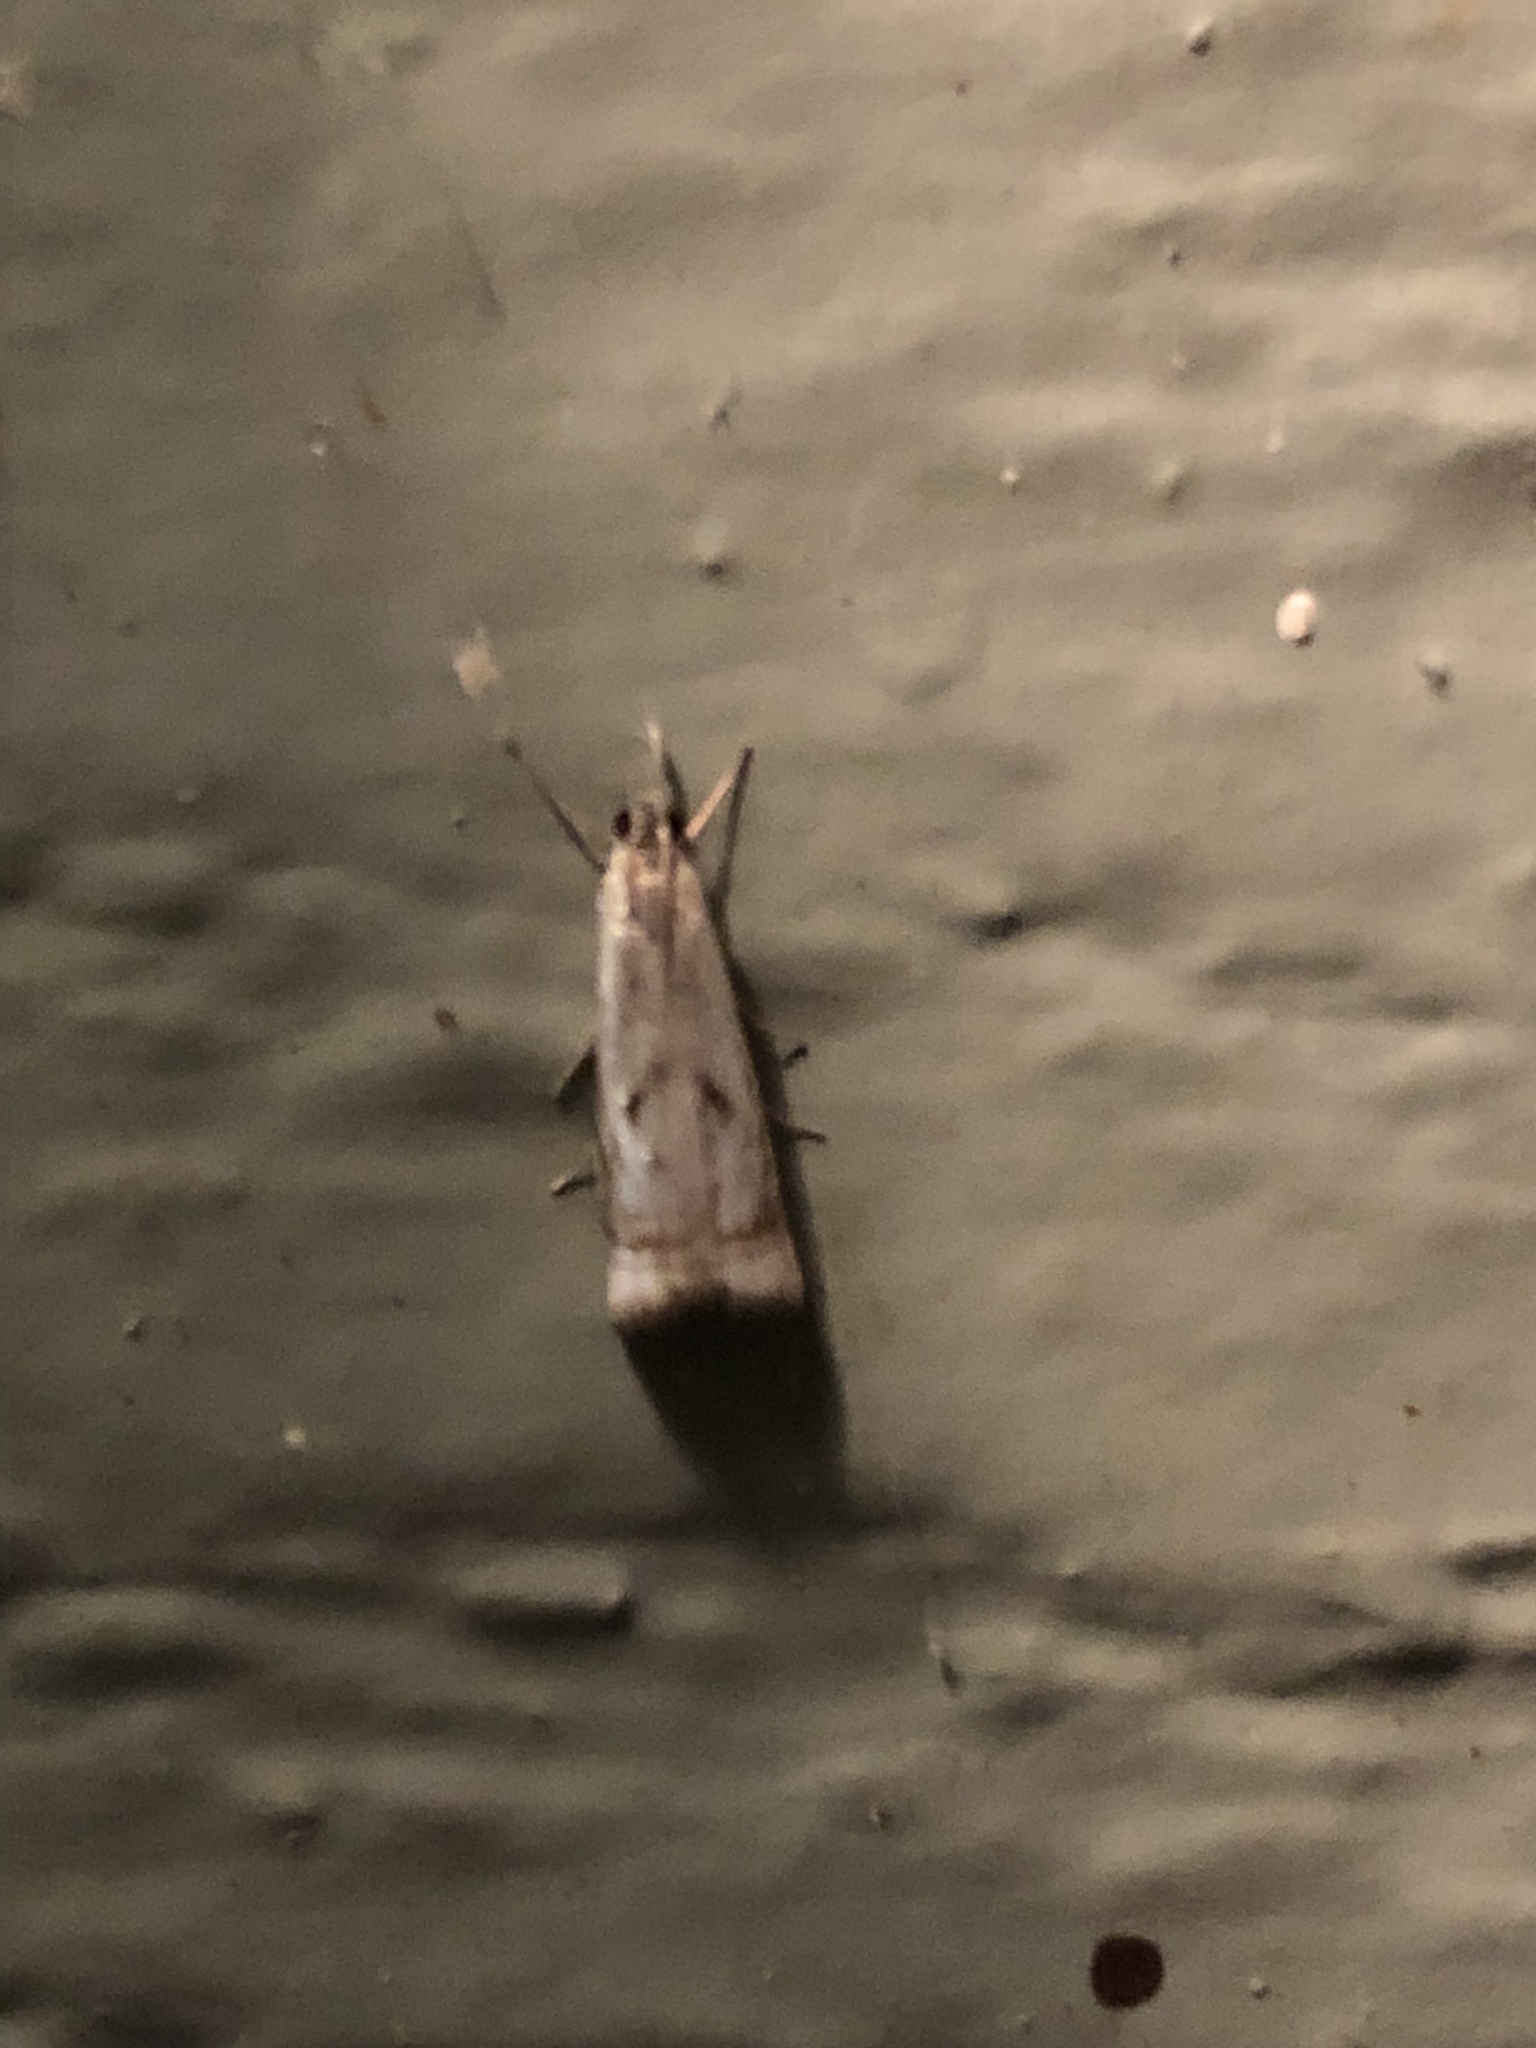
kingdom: Animalia
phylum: Arthropoda
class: Insecta
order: Lepidoptera
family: Crambidae
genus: Microcrambus
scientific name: Microcrambus elegans
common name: Elegant grass-veneer
